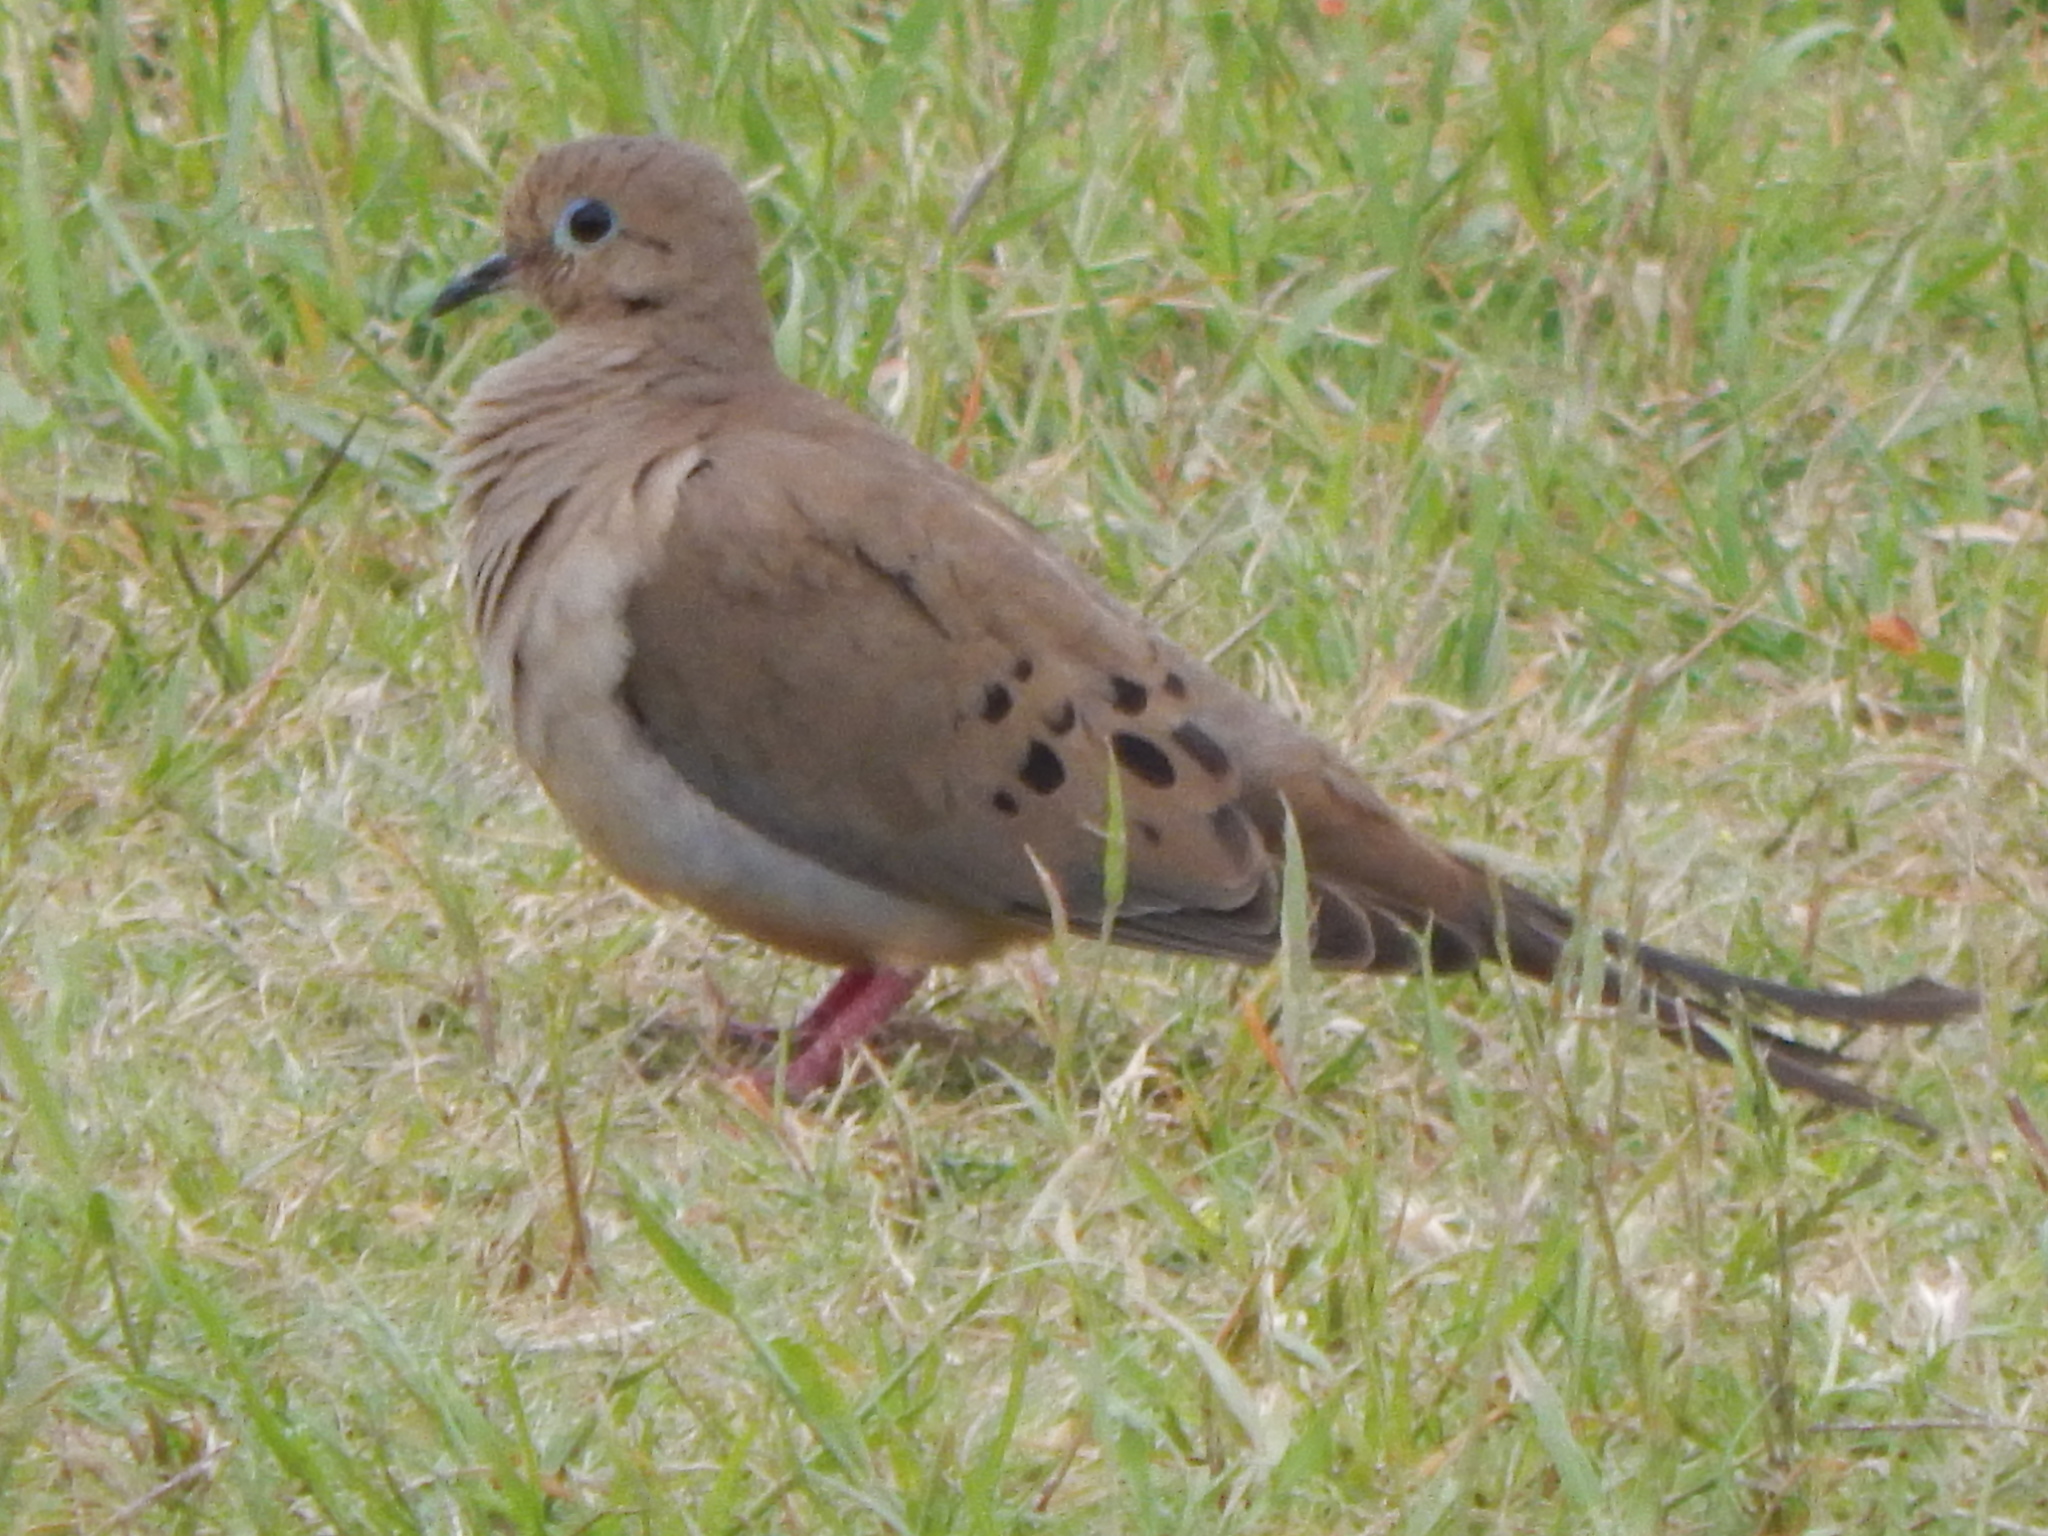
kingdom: Animalia
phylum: Chordata
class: Aves
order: Columbiformes
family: Columbidae
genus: Zenaida
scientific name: Zenaida macroura
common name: Mourning dove
